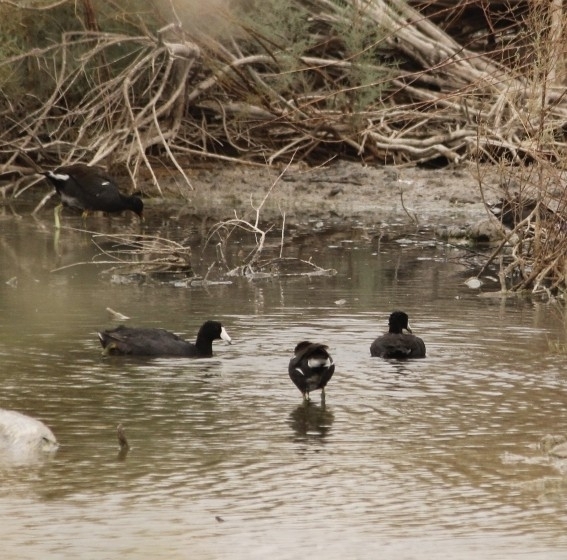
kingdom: Animalia
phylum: Chordata
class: Aves
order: Gruiformes
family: Rallidae
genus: Fulica
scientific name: Fulica americana
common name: American coot
